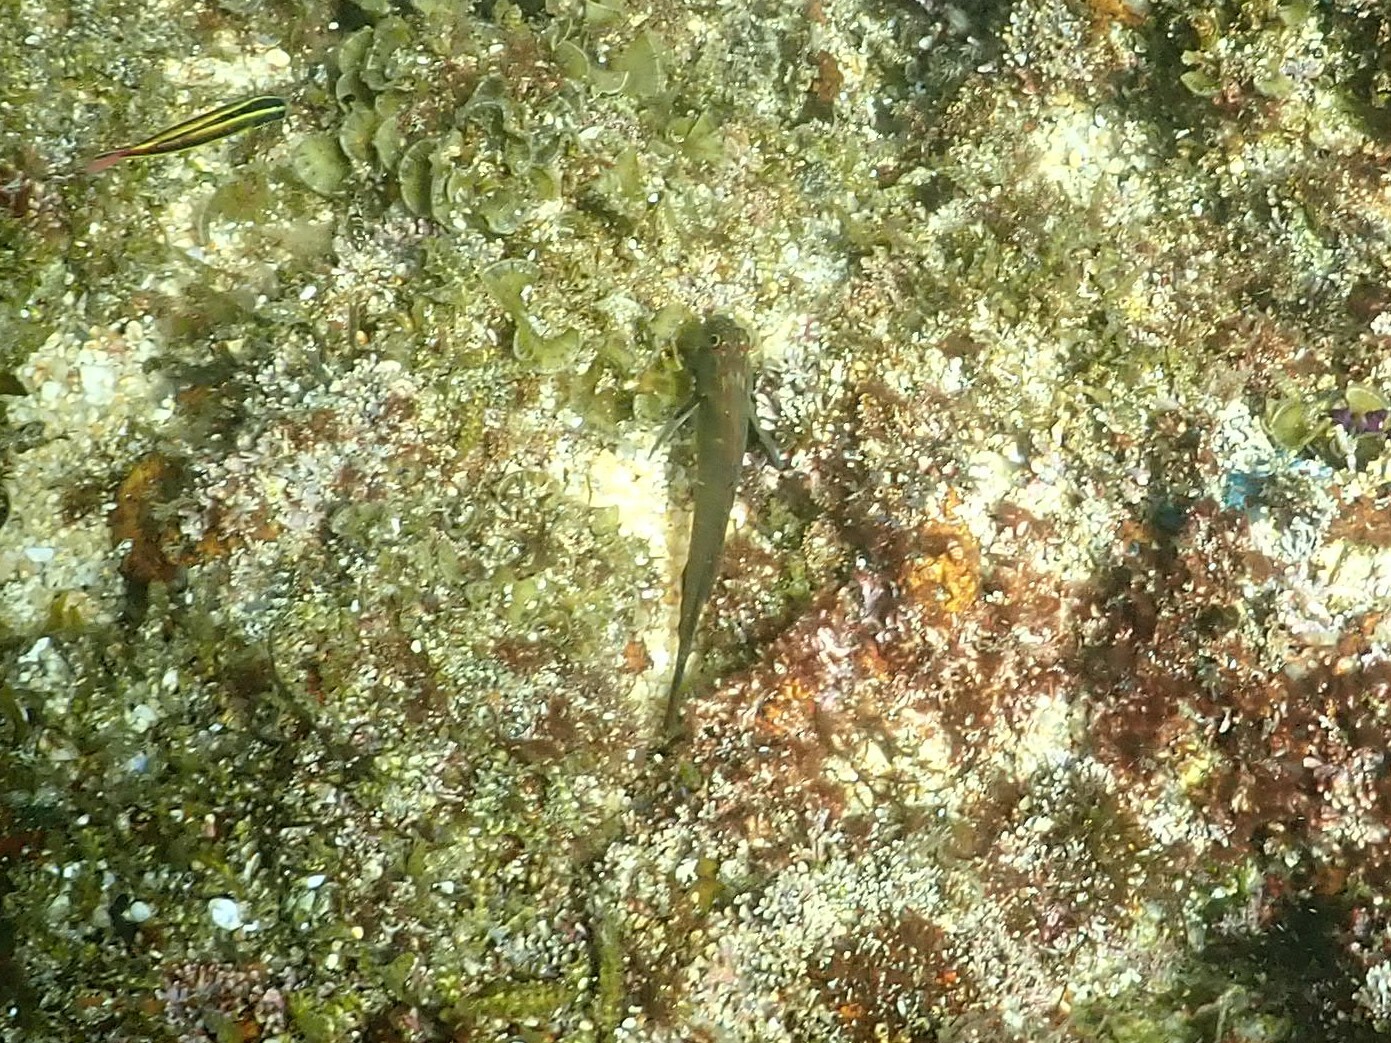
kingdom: Animalia
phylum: Chordata
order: Perciformes
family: Blenniidae
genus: Ophioblennius
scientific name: Ophioblennius steindachneri
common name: Panamic fanged blenny
